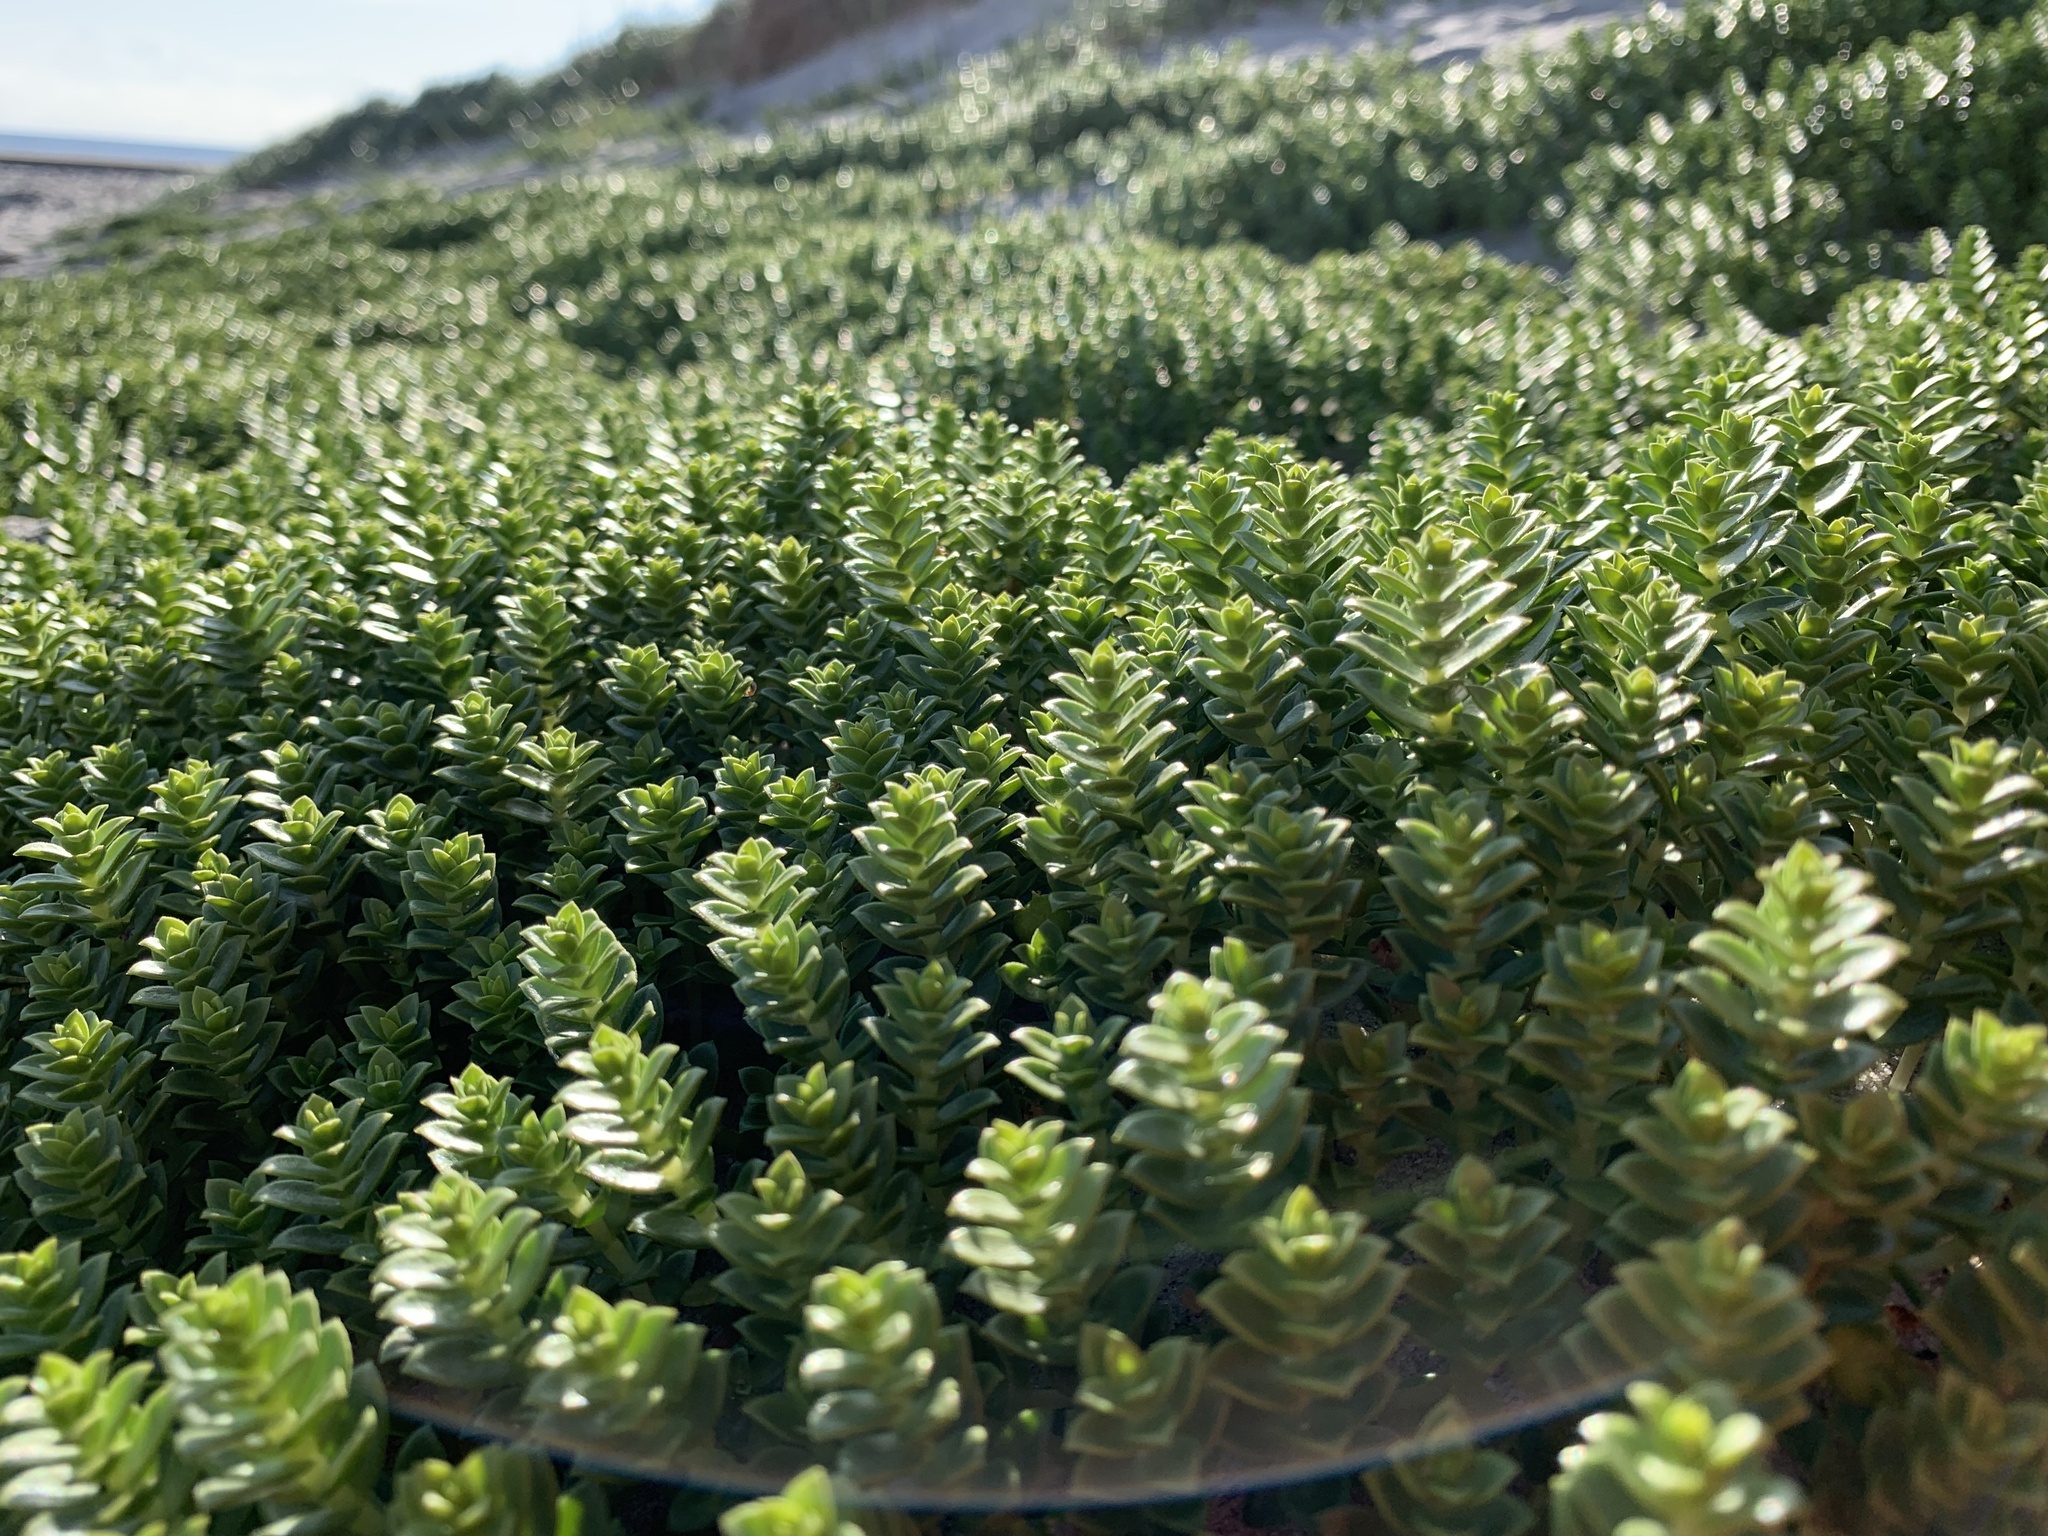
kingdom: Plantae
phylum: Tracheophyta
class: Magnoliopsida
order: Caryophyllales
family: Caryophyllaceae
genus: Honckenya
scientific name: Honckenya peploides
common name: Sea sandwort
